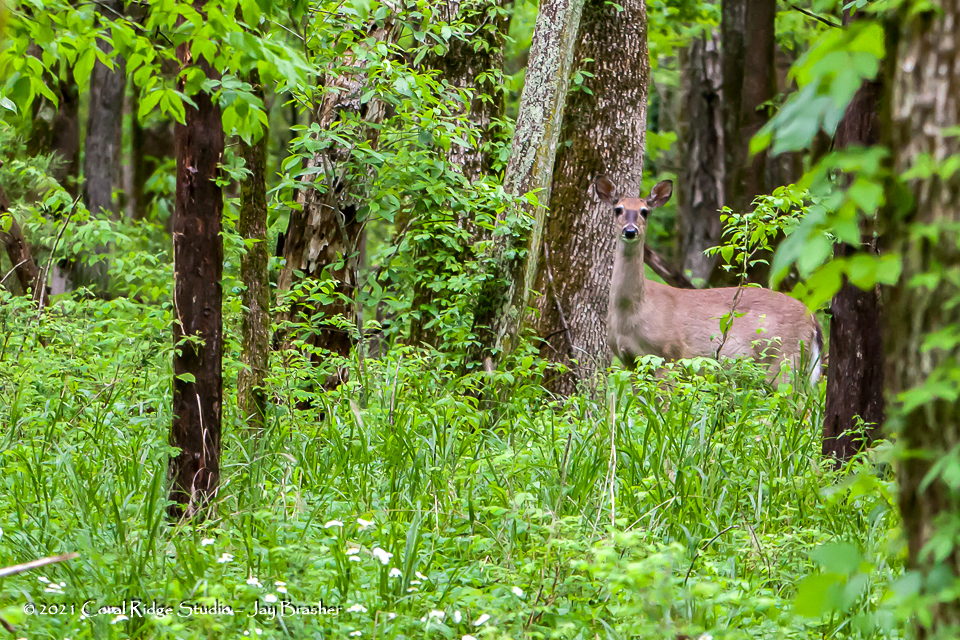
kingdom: Animalia
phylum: Chordata
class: Mammalia
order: Artiodactyla
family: Cervidae
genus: Odocoileus
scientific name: Odocoileus virginianus
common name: White-tailed deer
